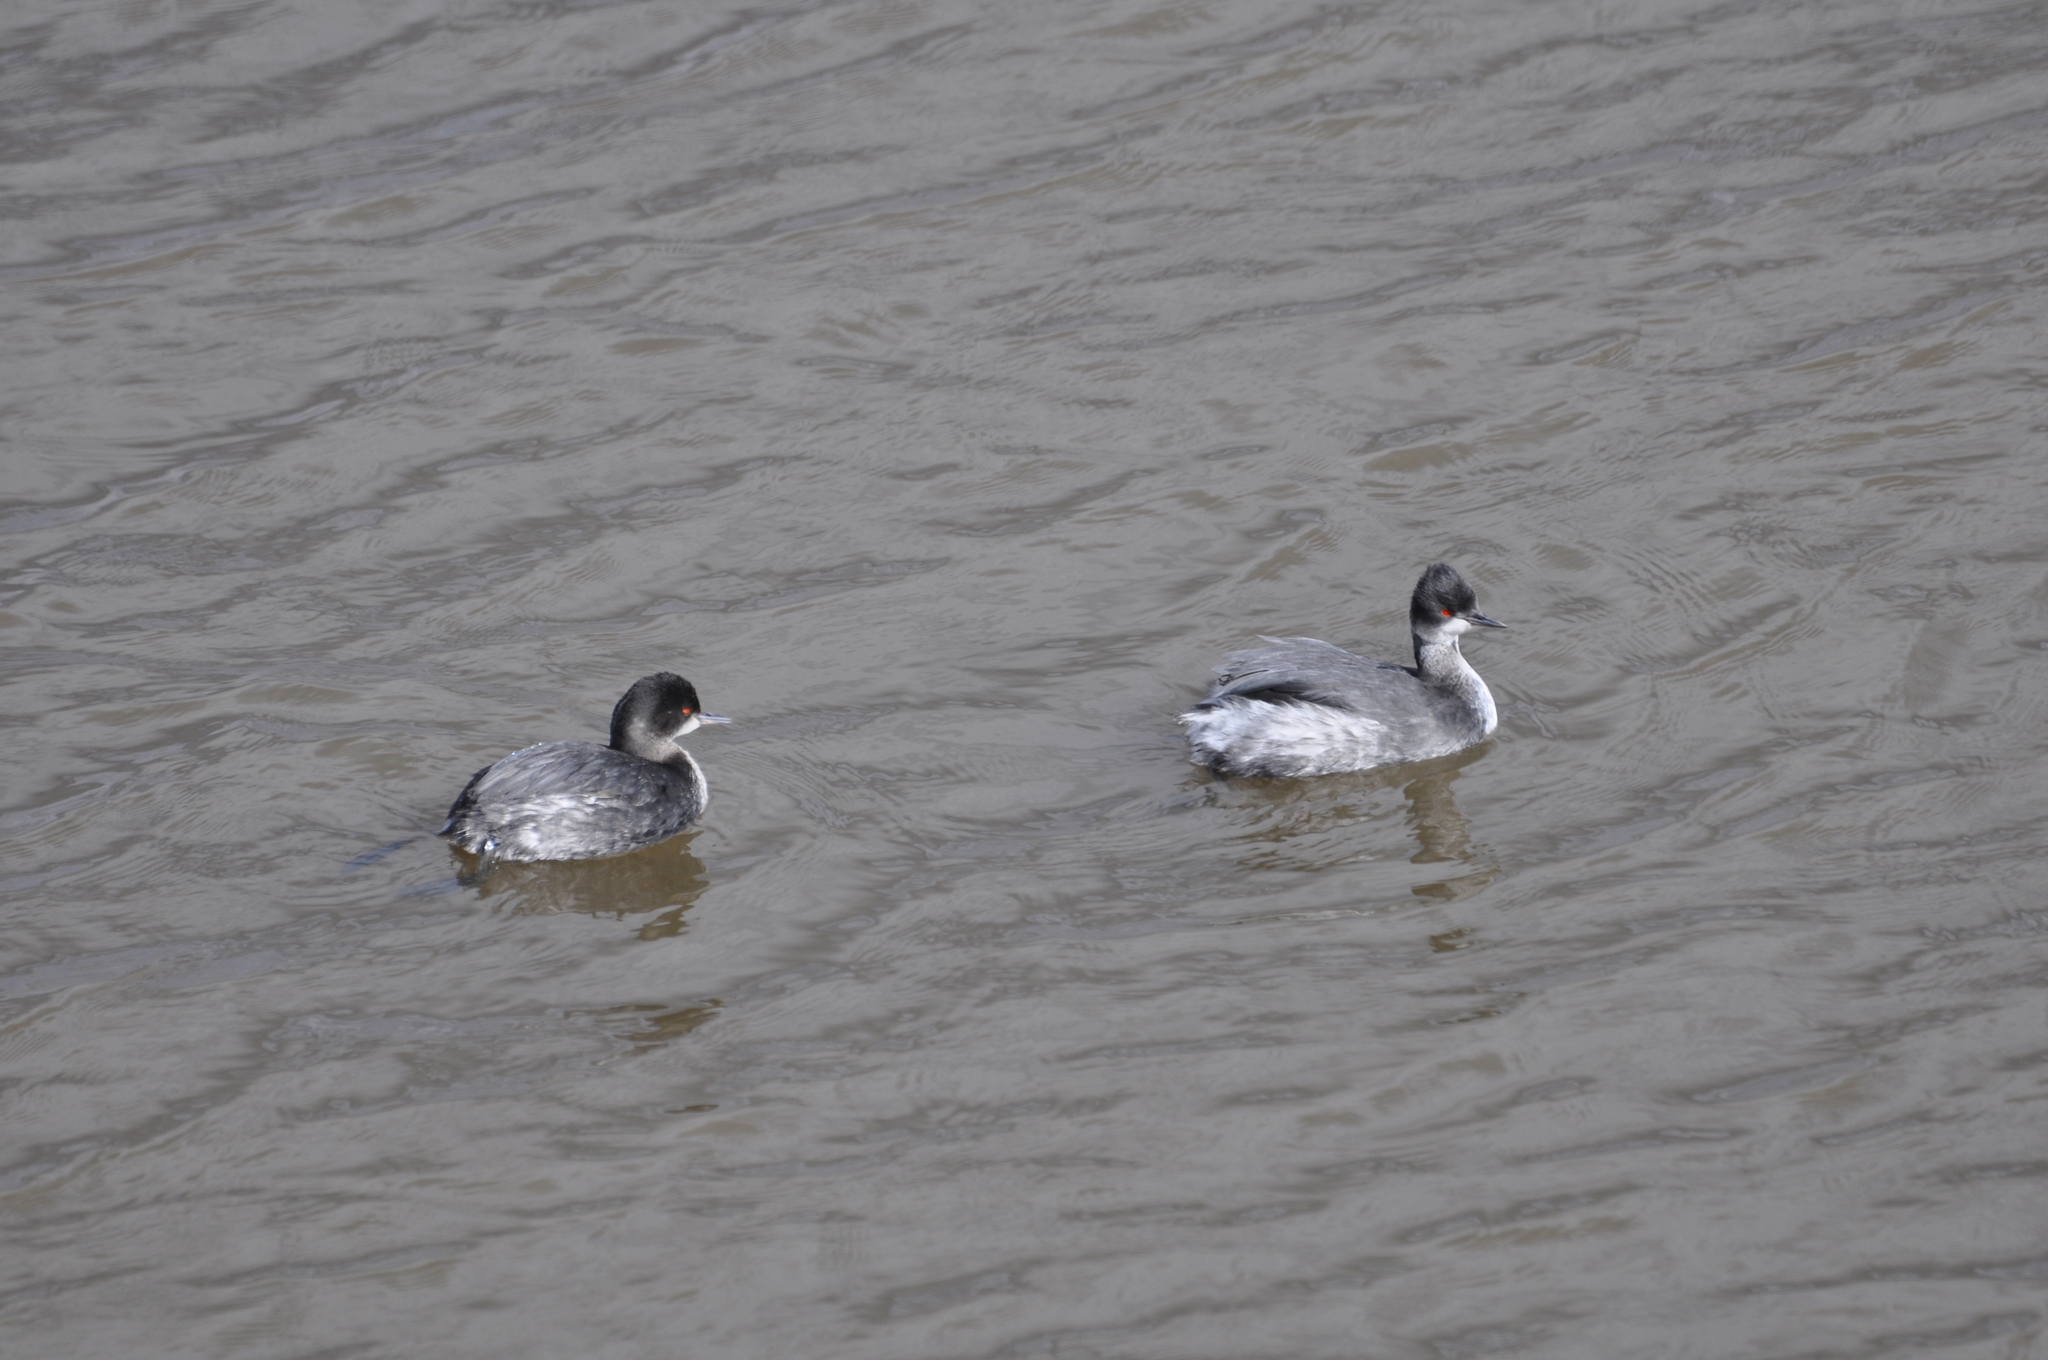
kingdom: Animalia
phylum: Chordata
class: Aves
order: Podicipediformes
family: Podicipedidae
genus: Podiceps
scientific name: Podiceps nigricollis
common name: Black-necked grebe
